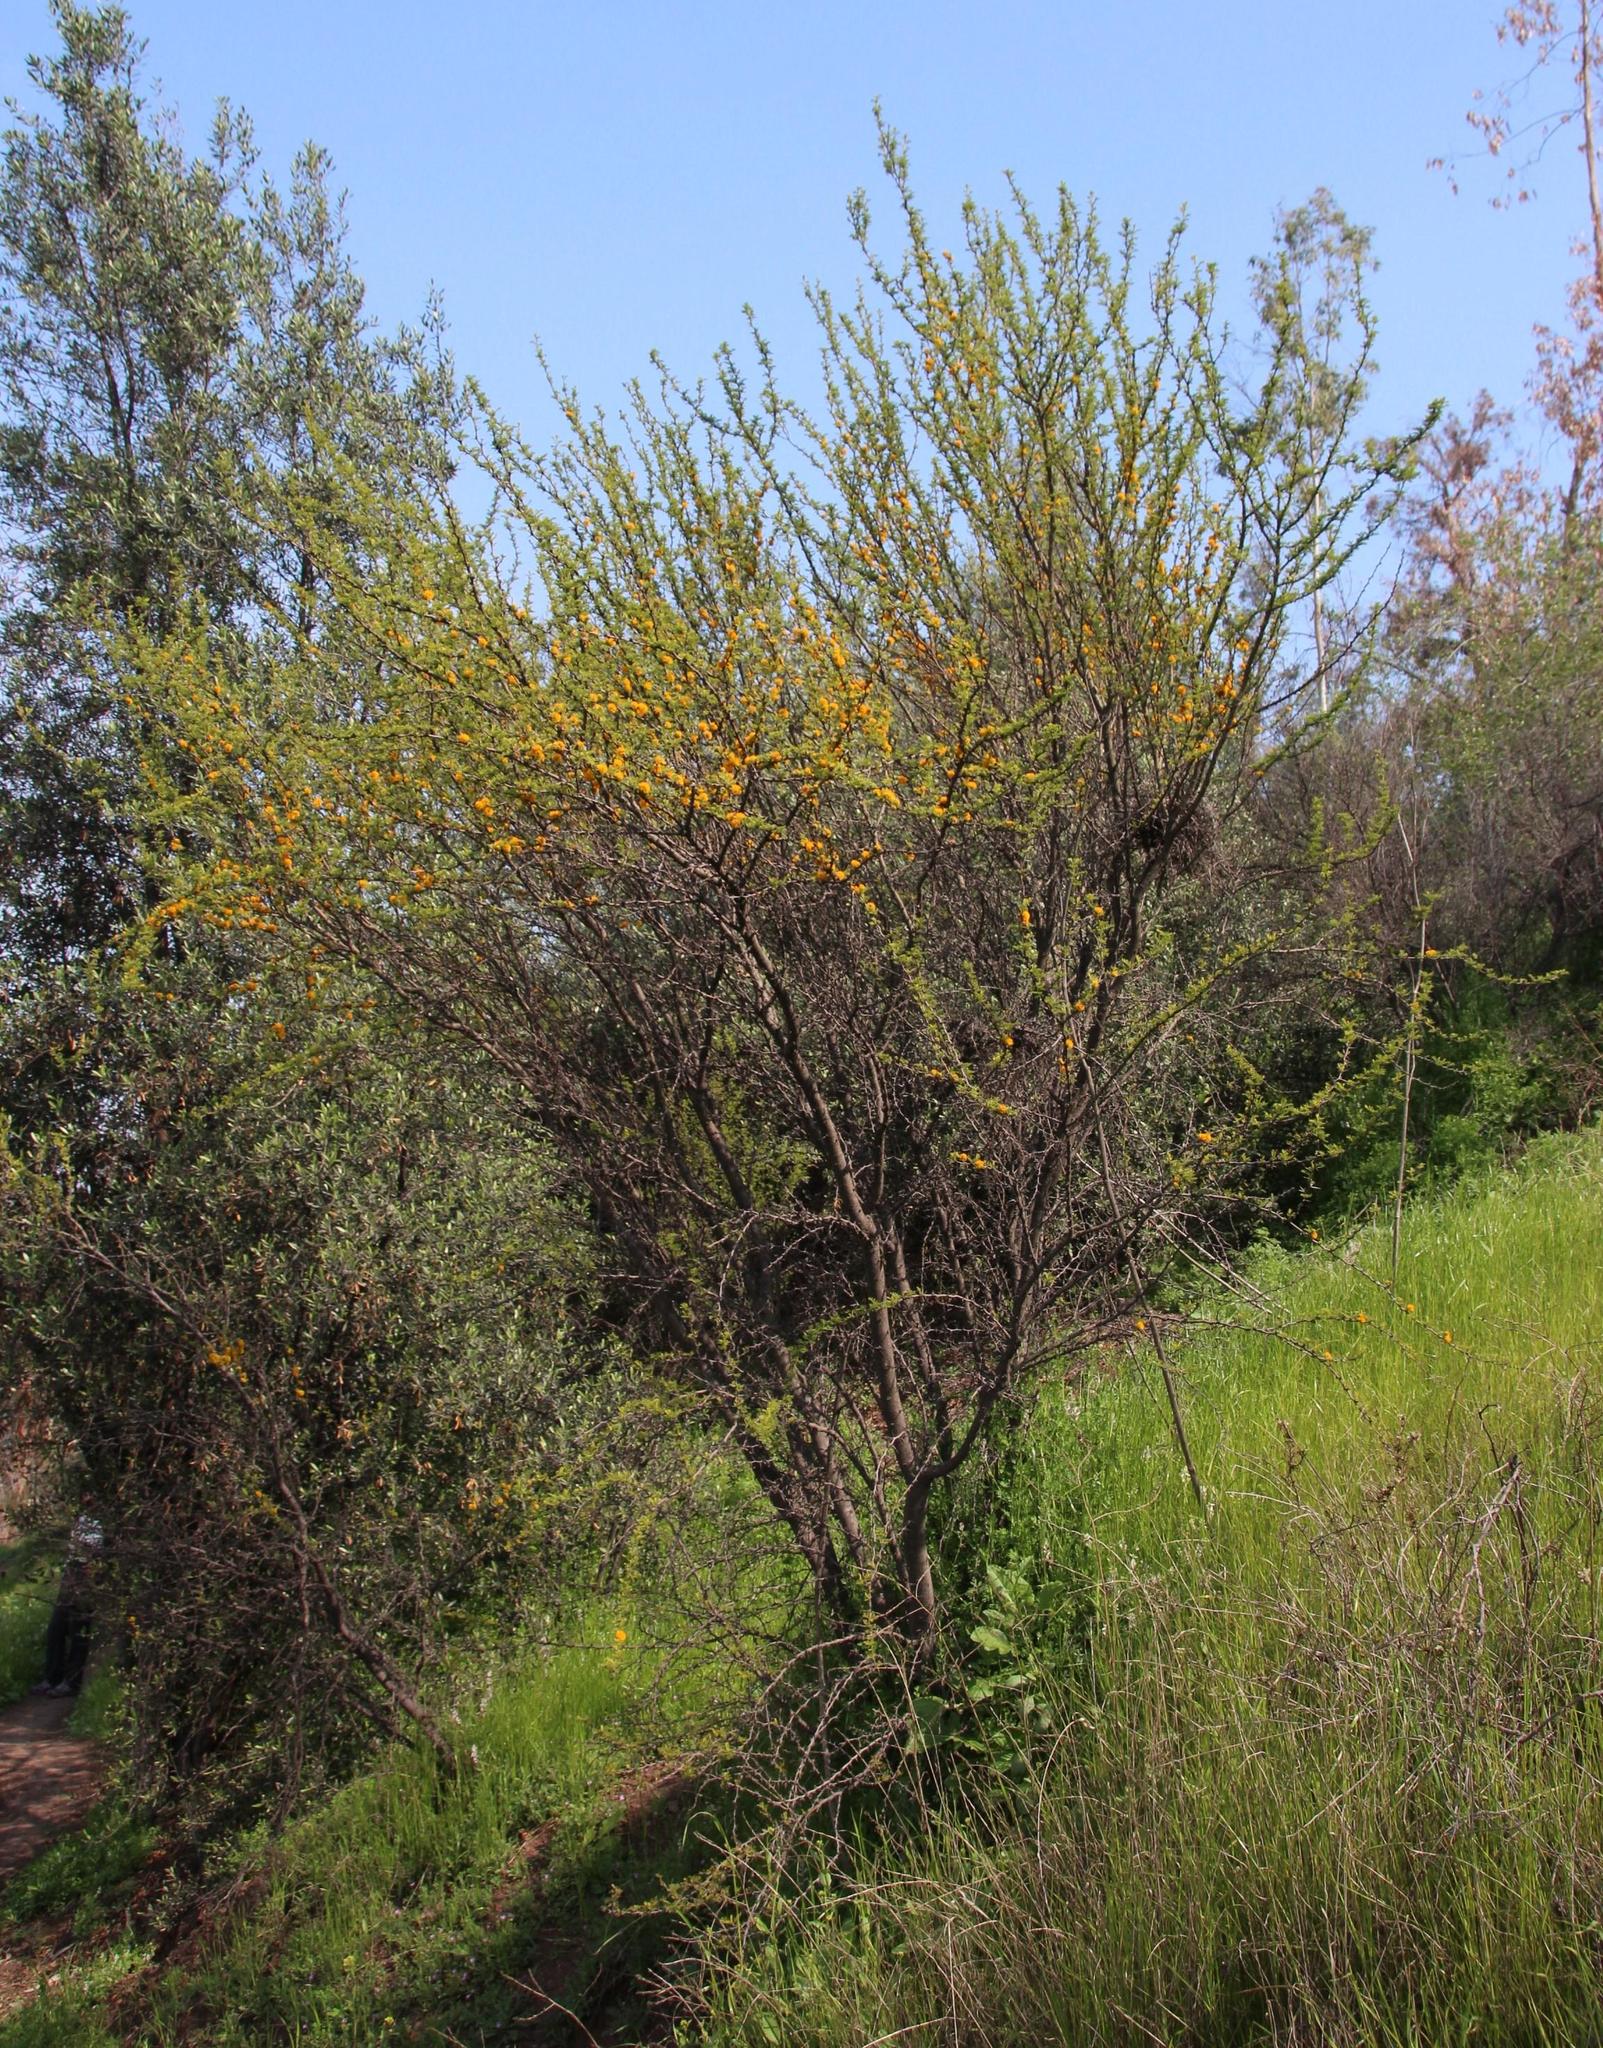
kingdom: Plantae
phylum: Tracheophyta
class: Magnoliopsida
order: Fabales
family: Fabaceae
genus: Vachellia
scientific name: Vachellia caven
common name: Roman cassie
